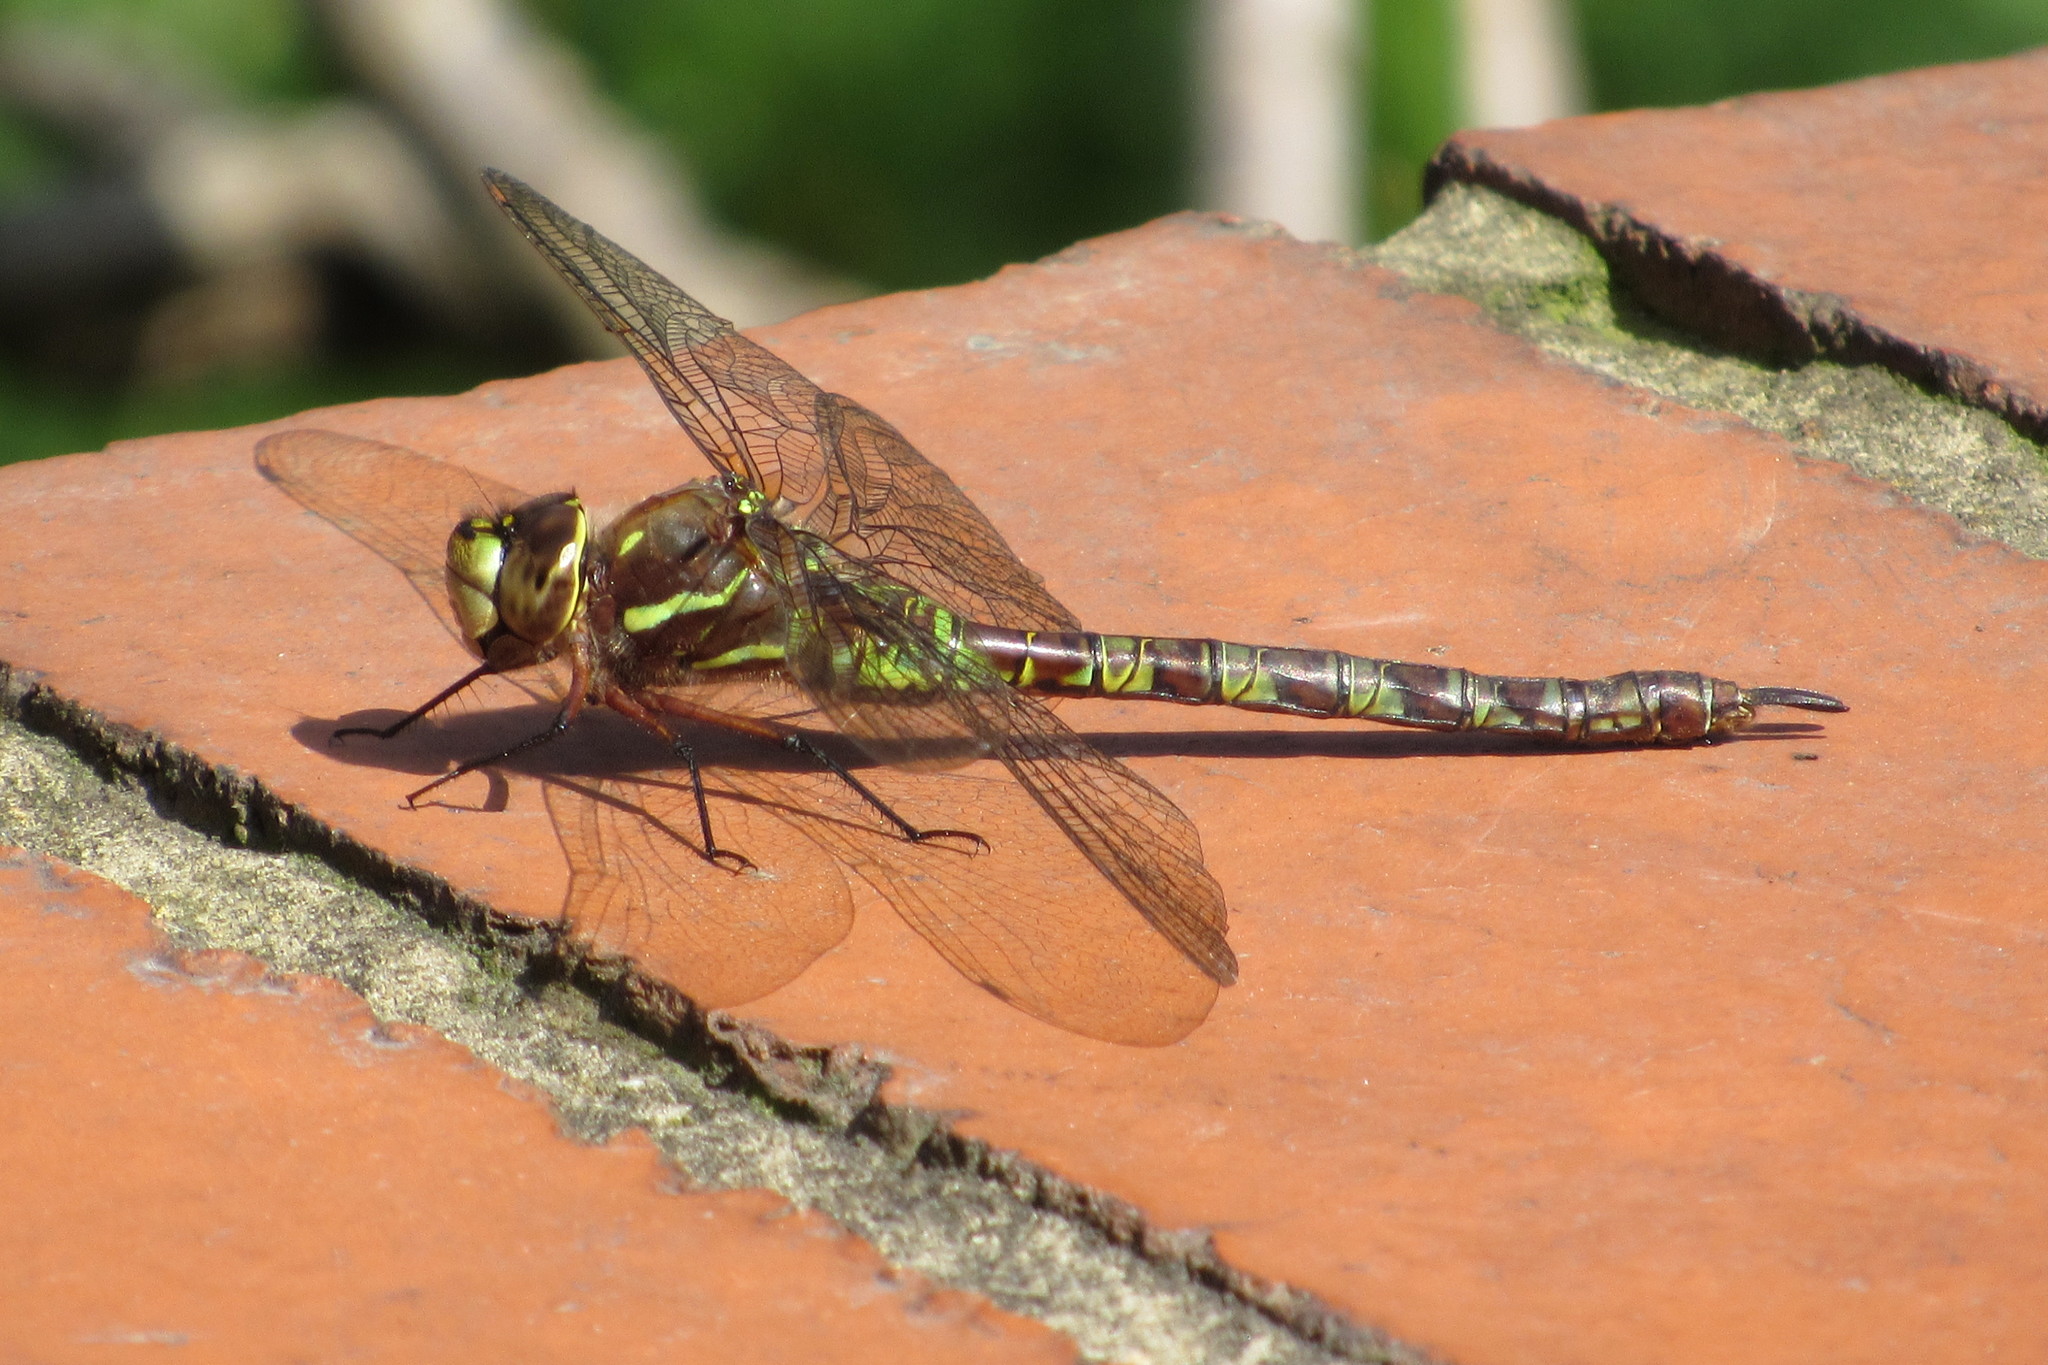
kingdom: Animalia
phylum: Arthropoda
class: Insecta
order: Odonata
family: Aeshnidae
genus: Rhionaeschna
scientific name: Rhionaeschna marchali
